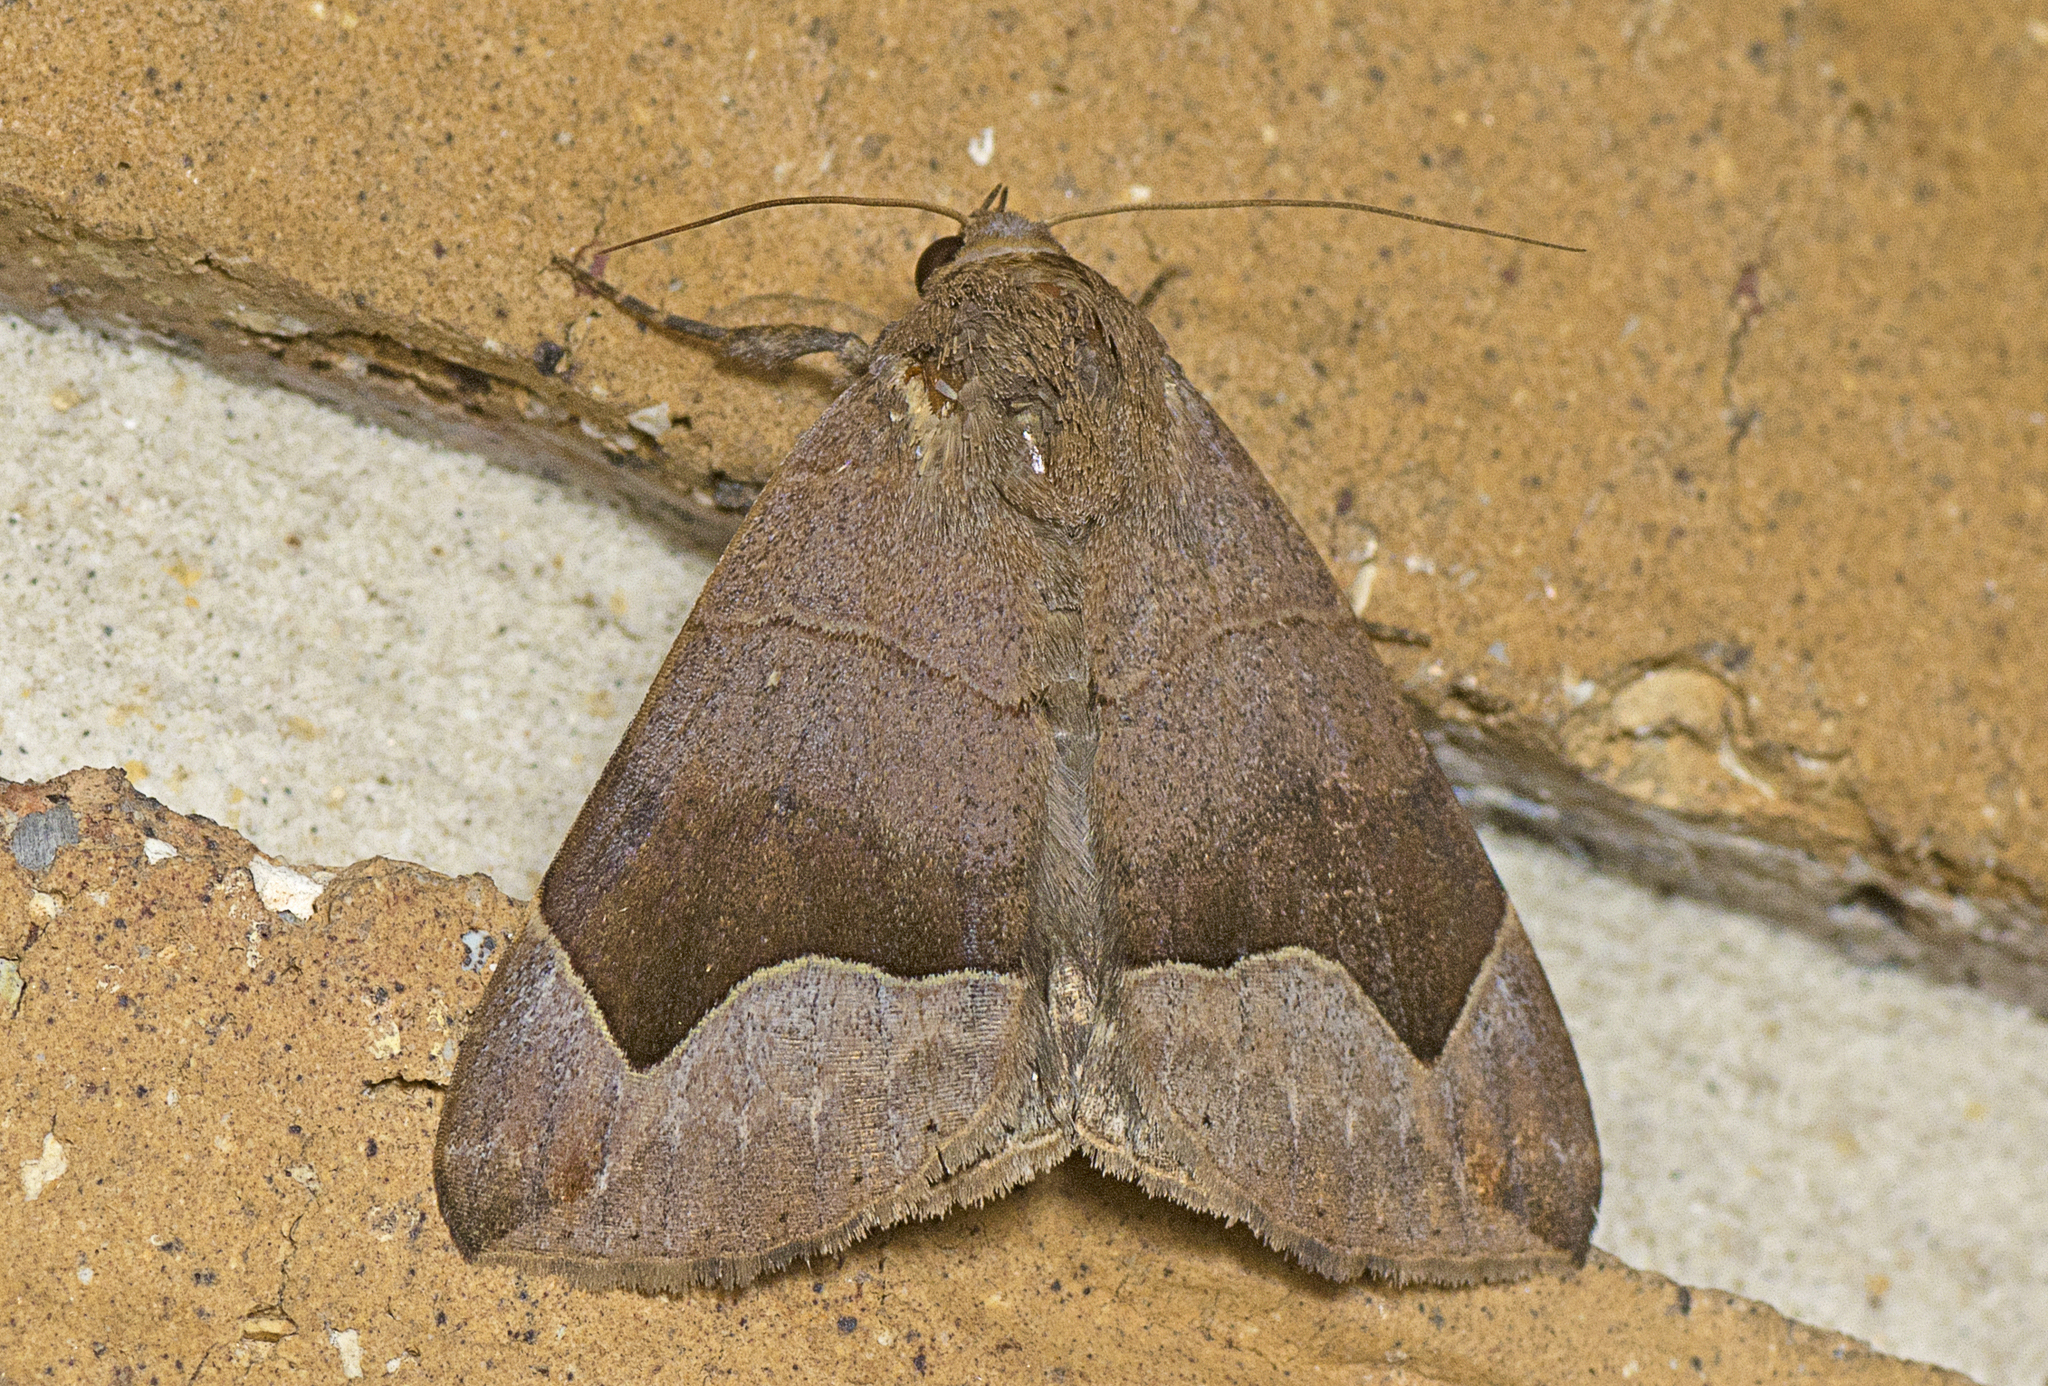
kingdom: Animalia
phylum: Arthropoda
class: Insecta
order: Lepidoptera
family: Erebidae
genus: Dysgonia
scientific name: Dysgonia monogona
